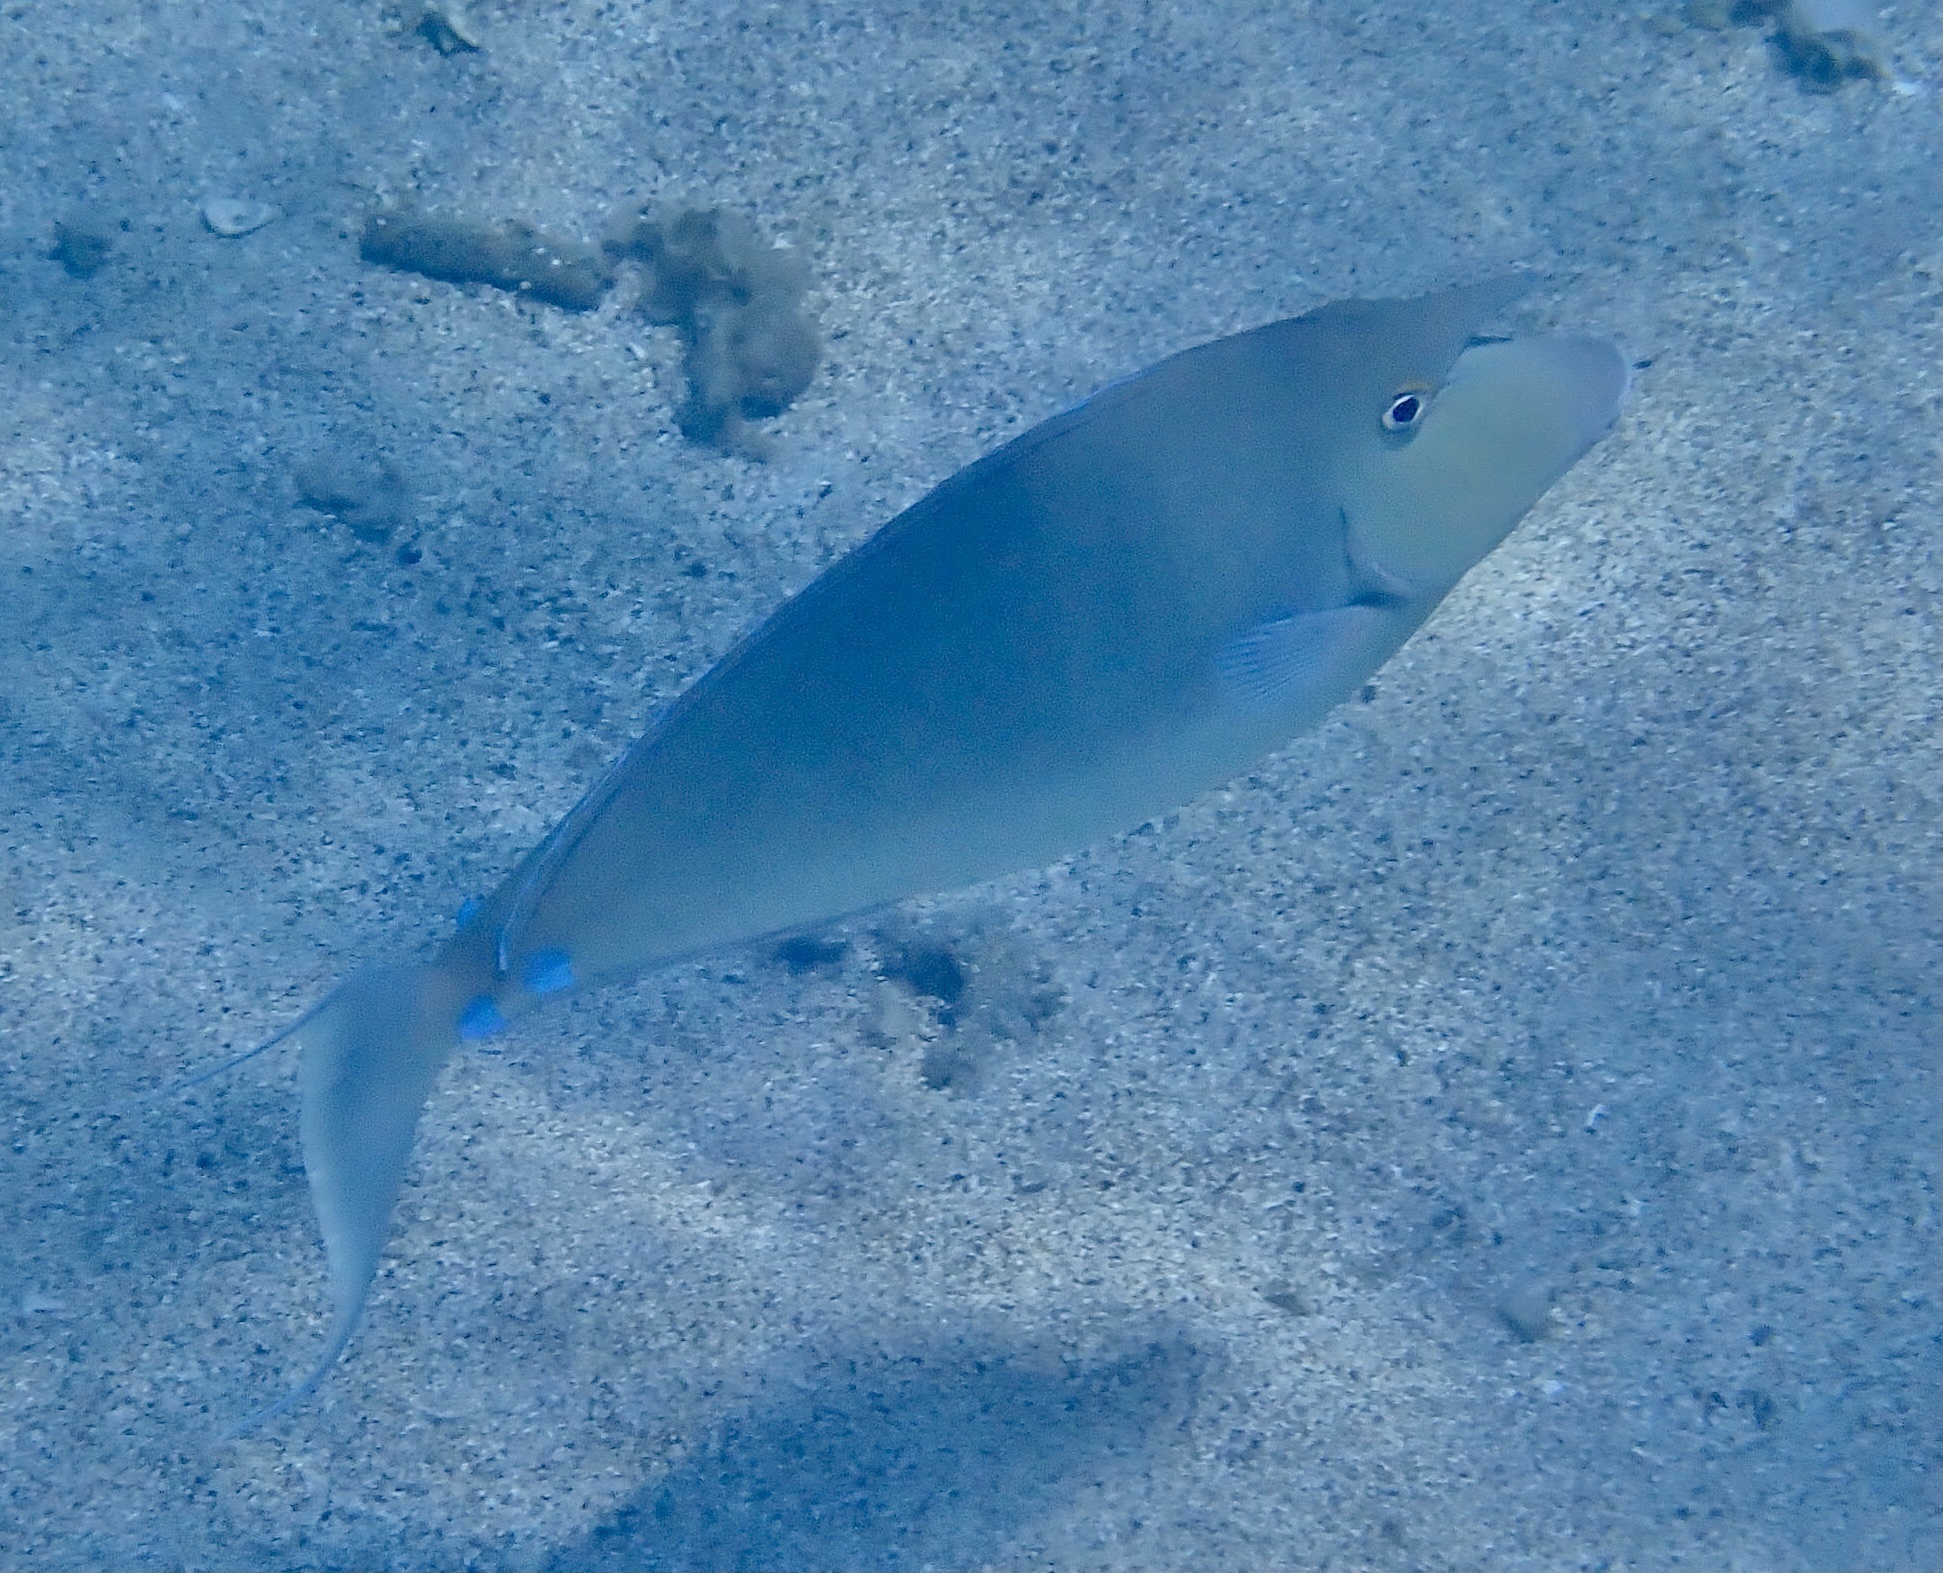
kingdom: Animalia
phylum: Chordata
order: Perciformes
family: Acanthuridae
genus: Naso
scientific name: Naso unicornis
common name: Bluespine unicornfish
